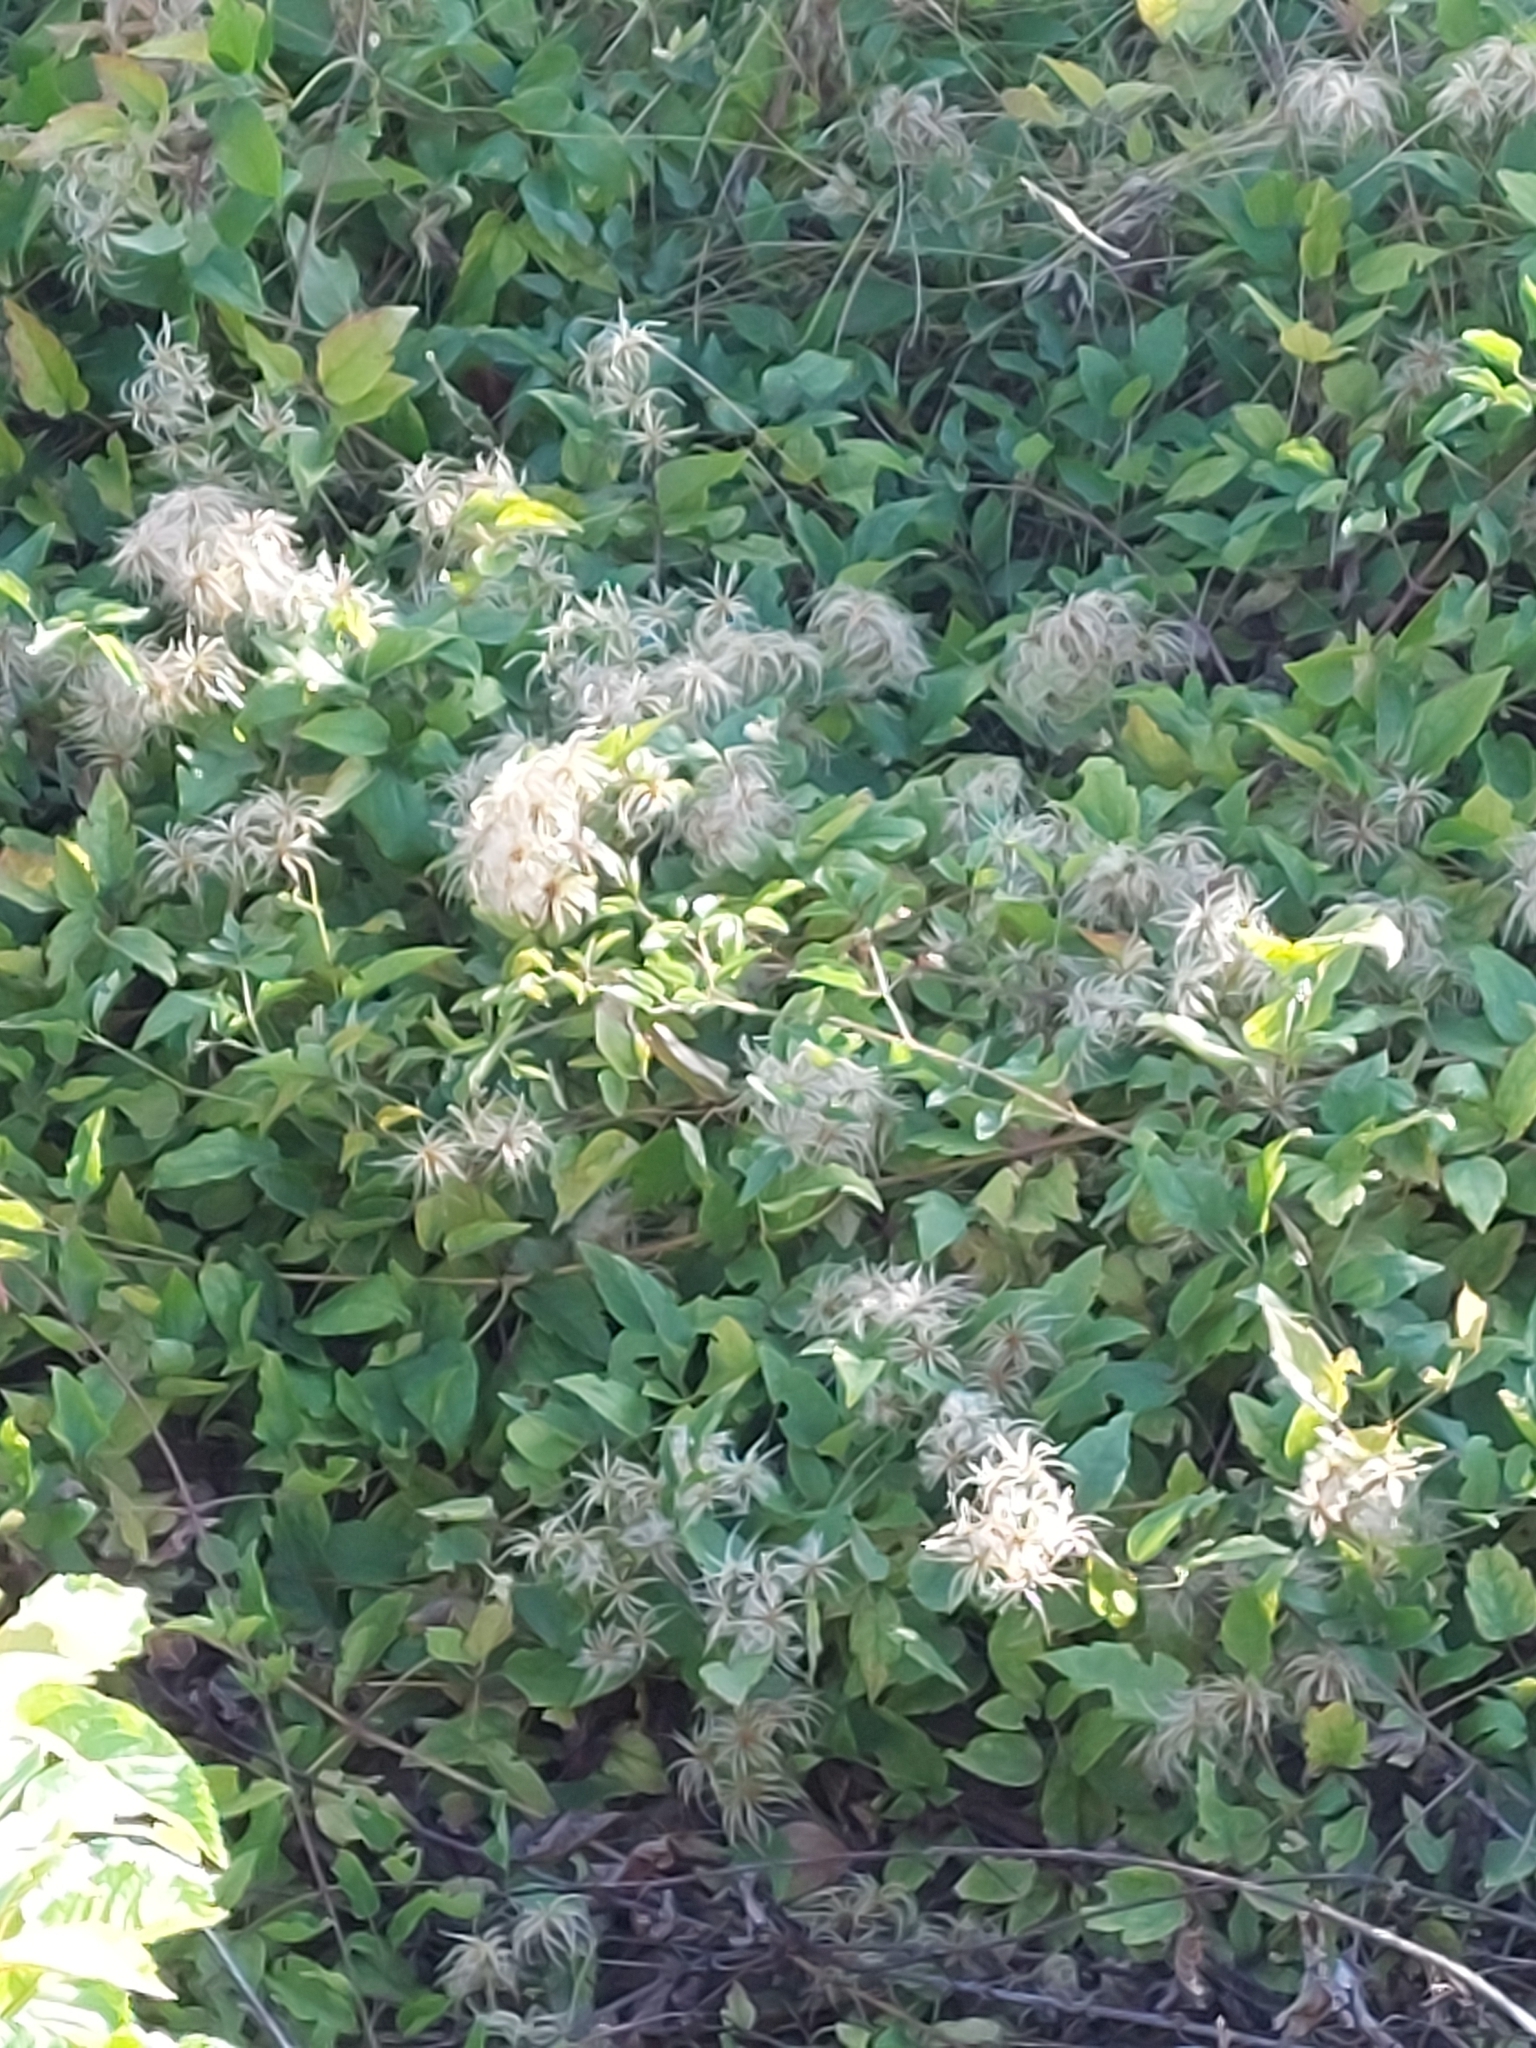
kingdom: Plantae
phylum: Tracheophyta
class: Magnoliopsida
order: Ranunculales
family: Ranunculaceae
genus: Clematis
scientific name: Clematis vitalba
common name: Evergreen clematis
